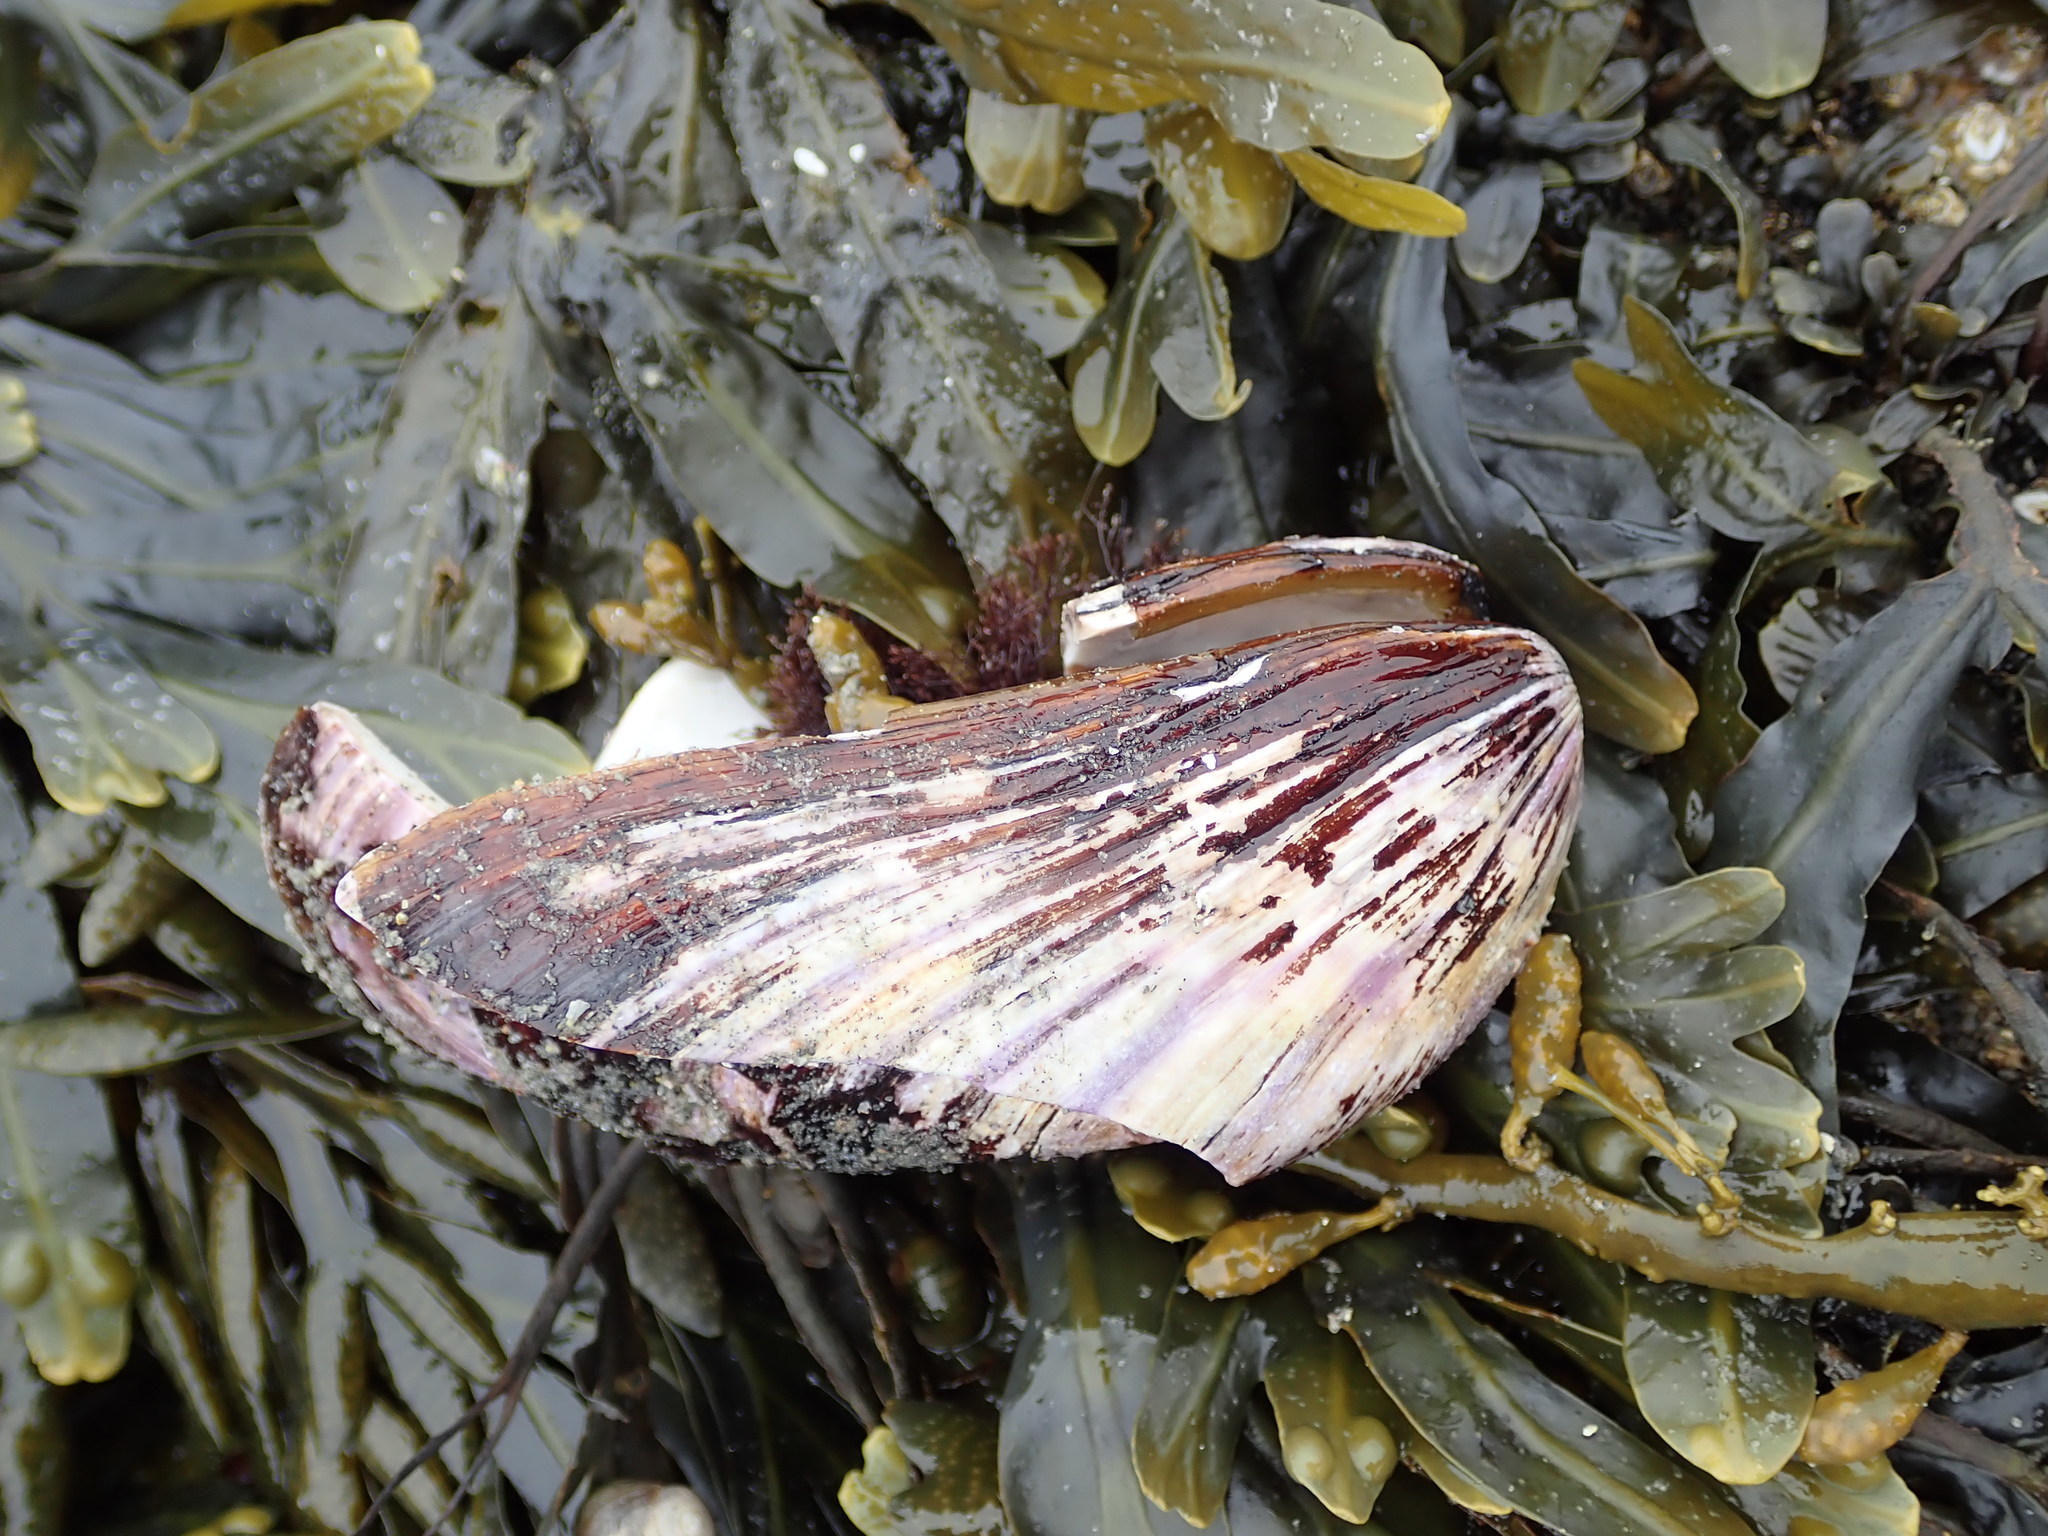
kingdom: Animalia
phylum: Mollusca
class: Bivalvia
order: Mytilida
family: Mytilidae
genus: Modiolus
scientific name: Modiolus modiolus
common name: Horse-mussel
